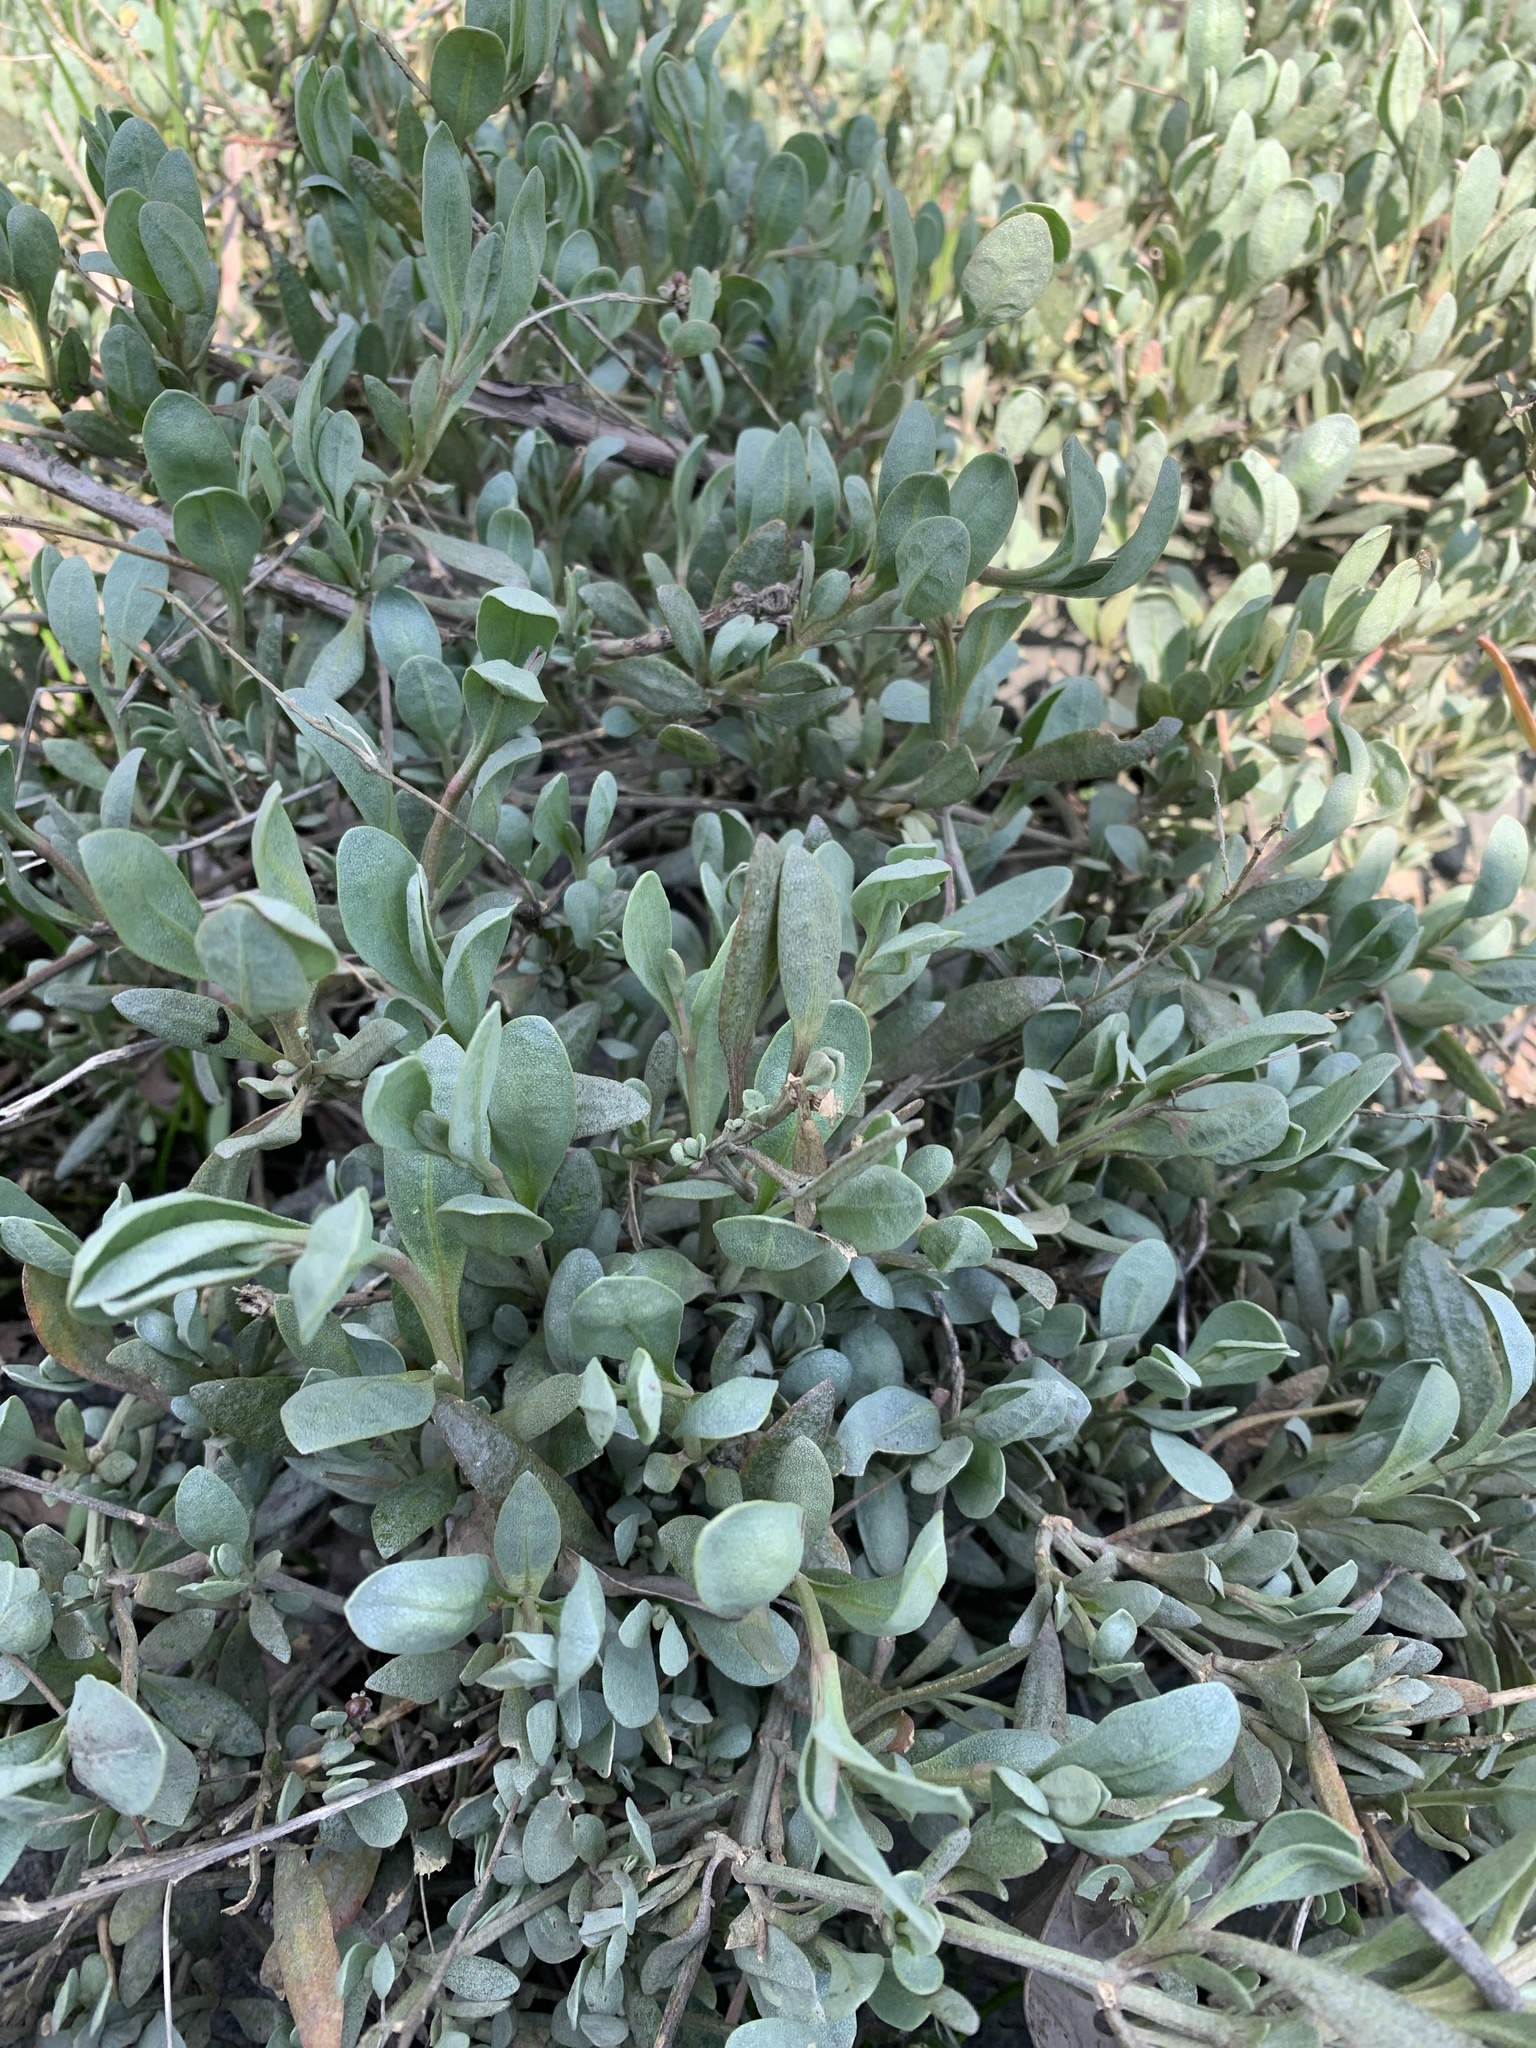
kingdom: Plantae
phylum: Tracheophyta
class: Magnoliopsida
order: Caryophyllales
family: Amaranthaceae
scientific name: Amaranthaceae
